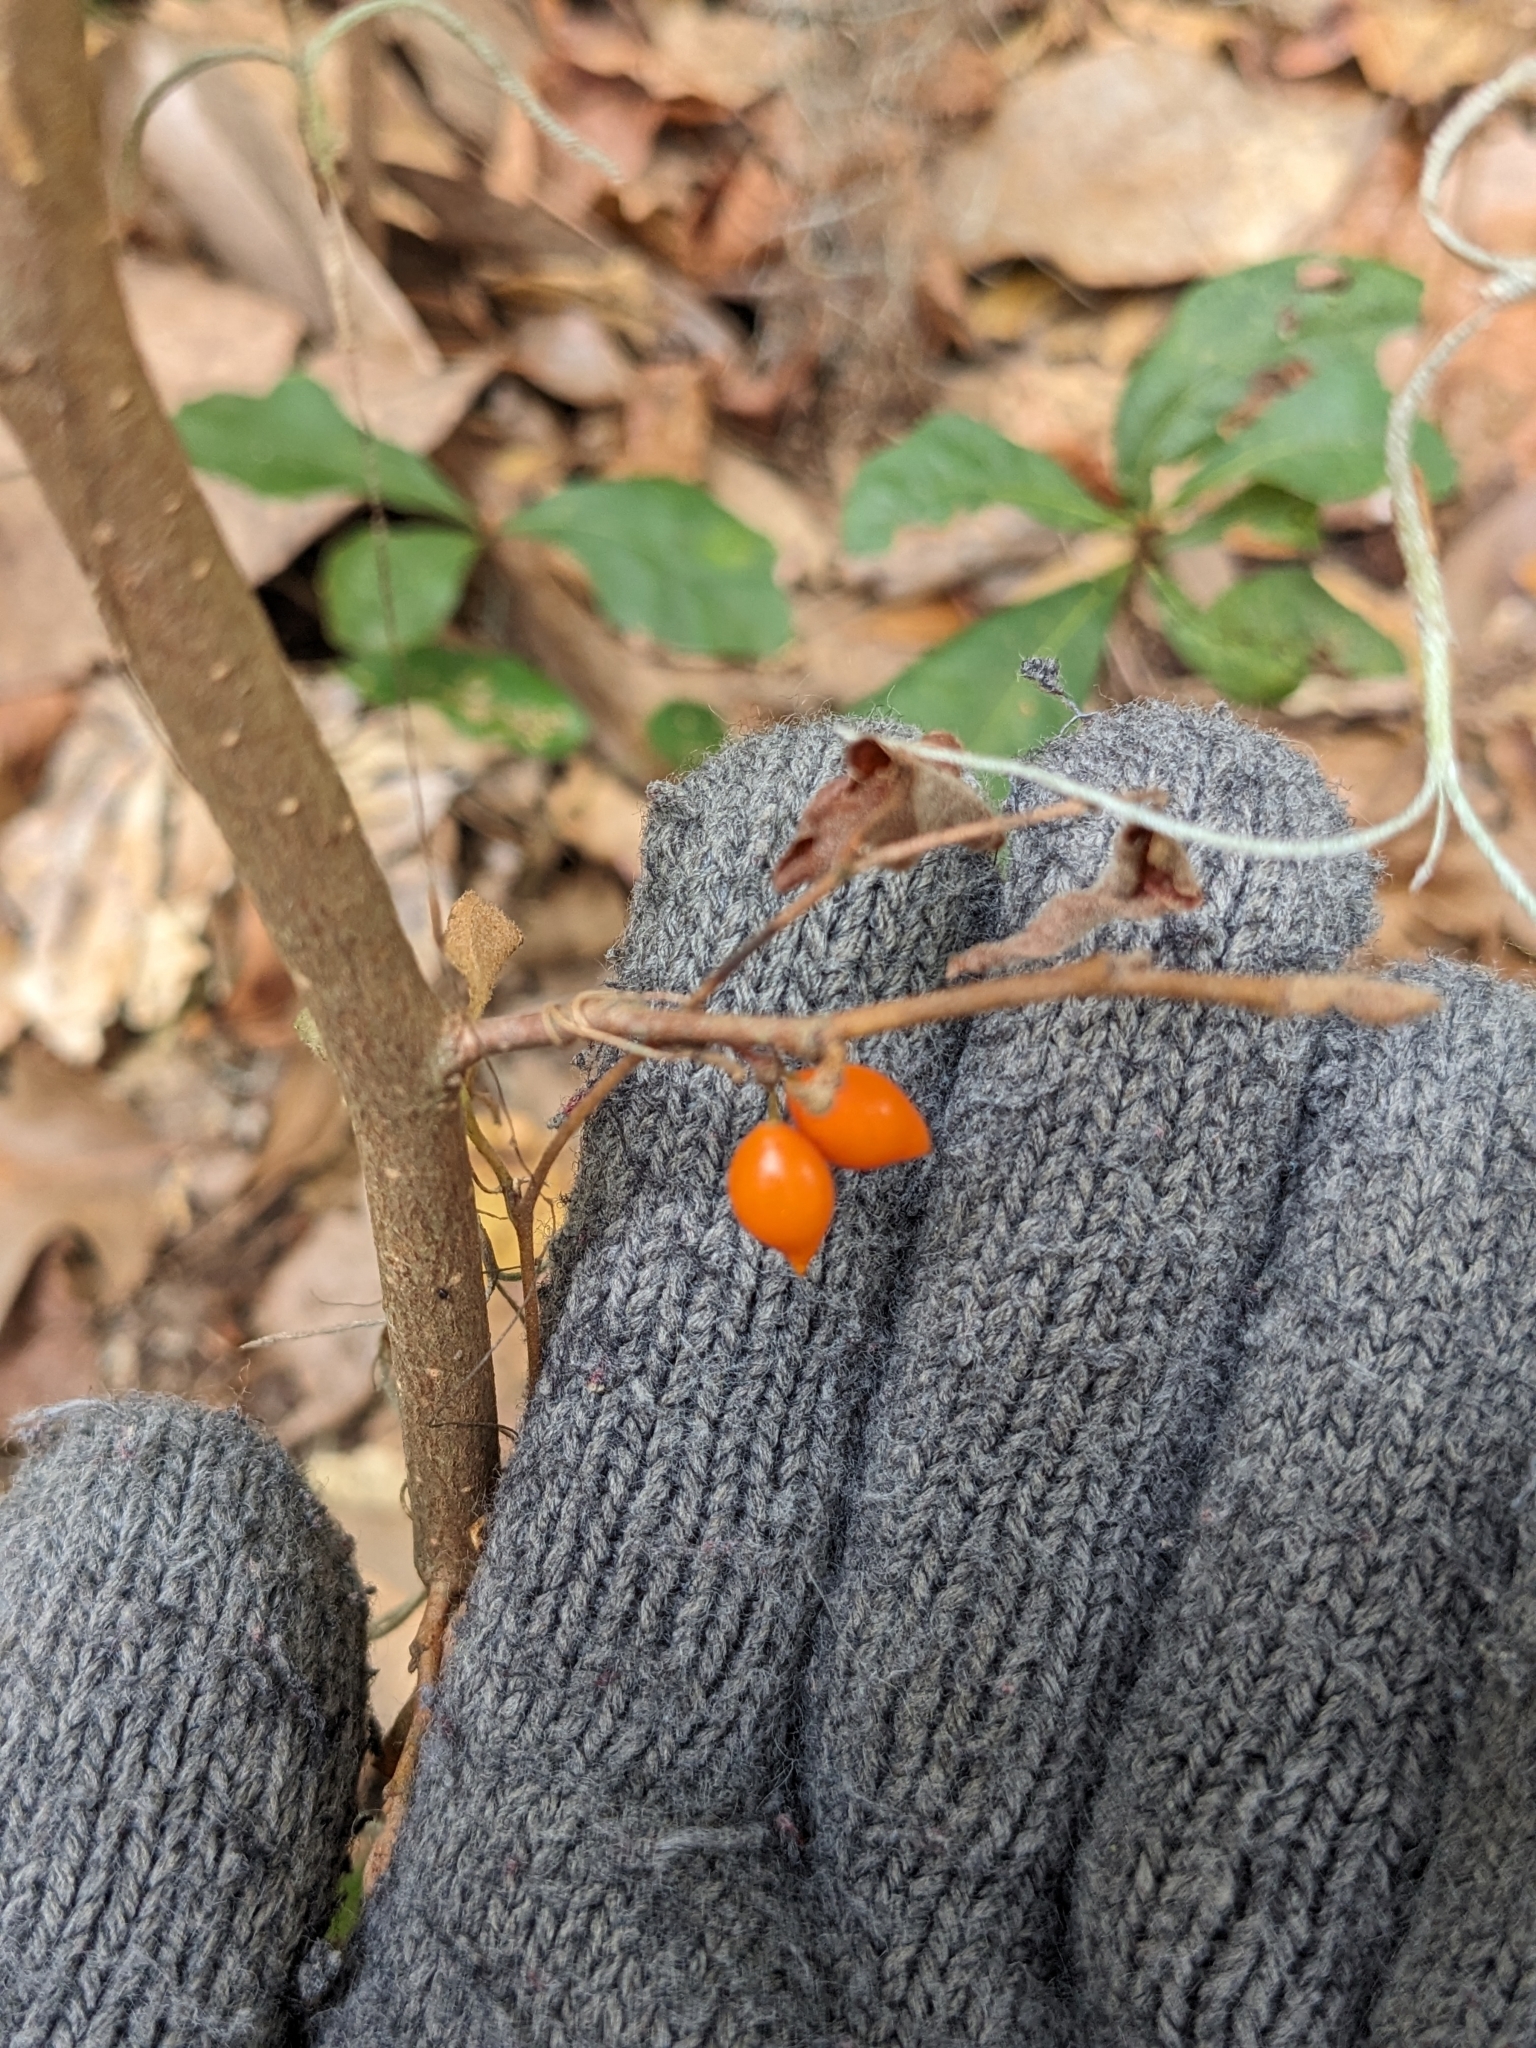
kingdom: Plantae
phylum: Tracheophyta
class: Liliopsida
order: Liliales
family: Smilacaceae
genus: Smilax
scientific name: Smilax pumila
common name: Sarsaparilla-vine
